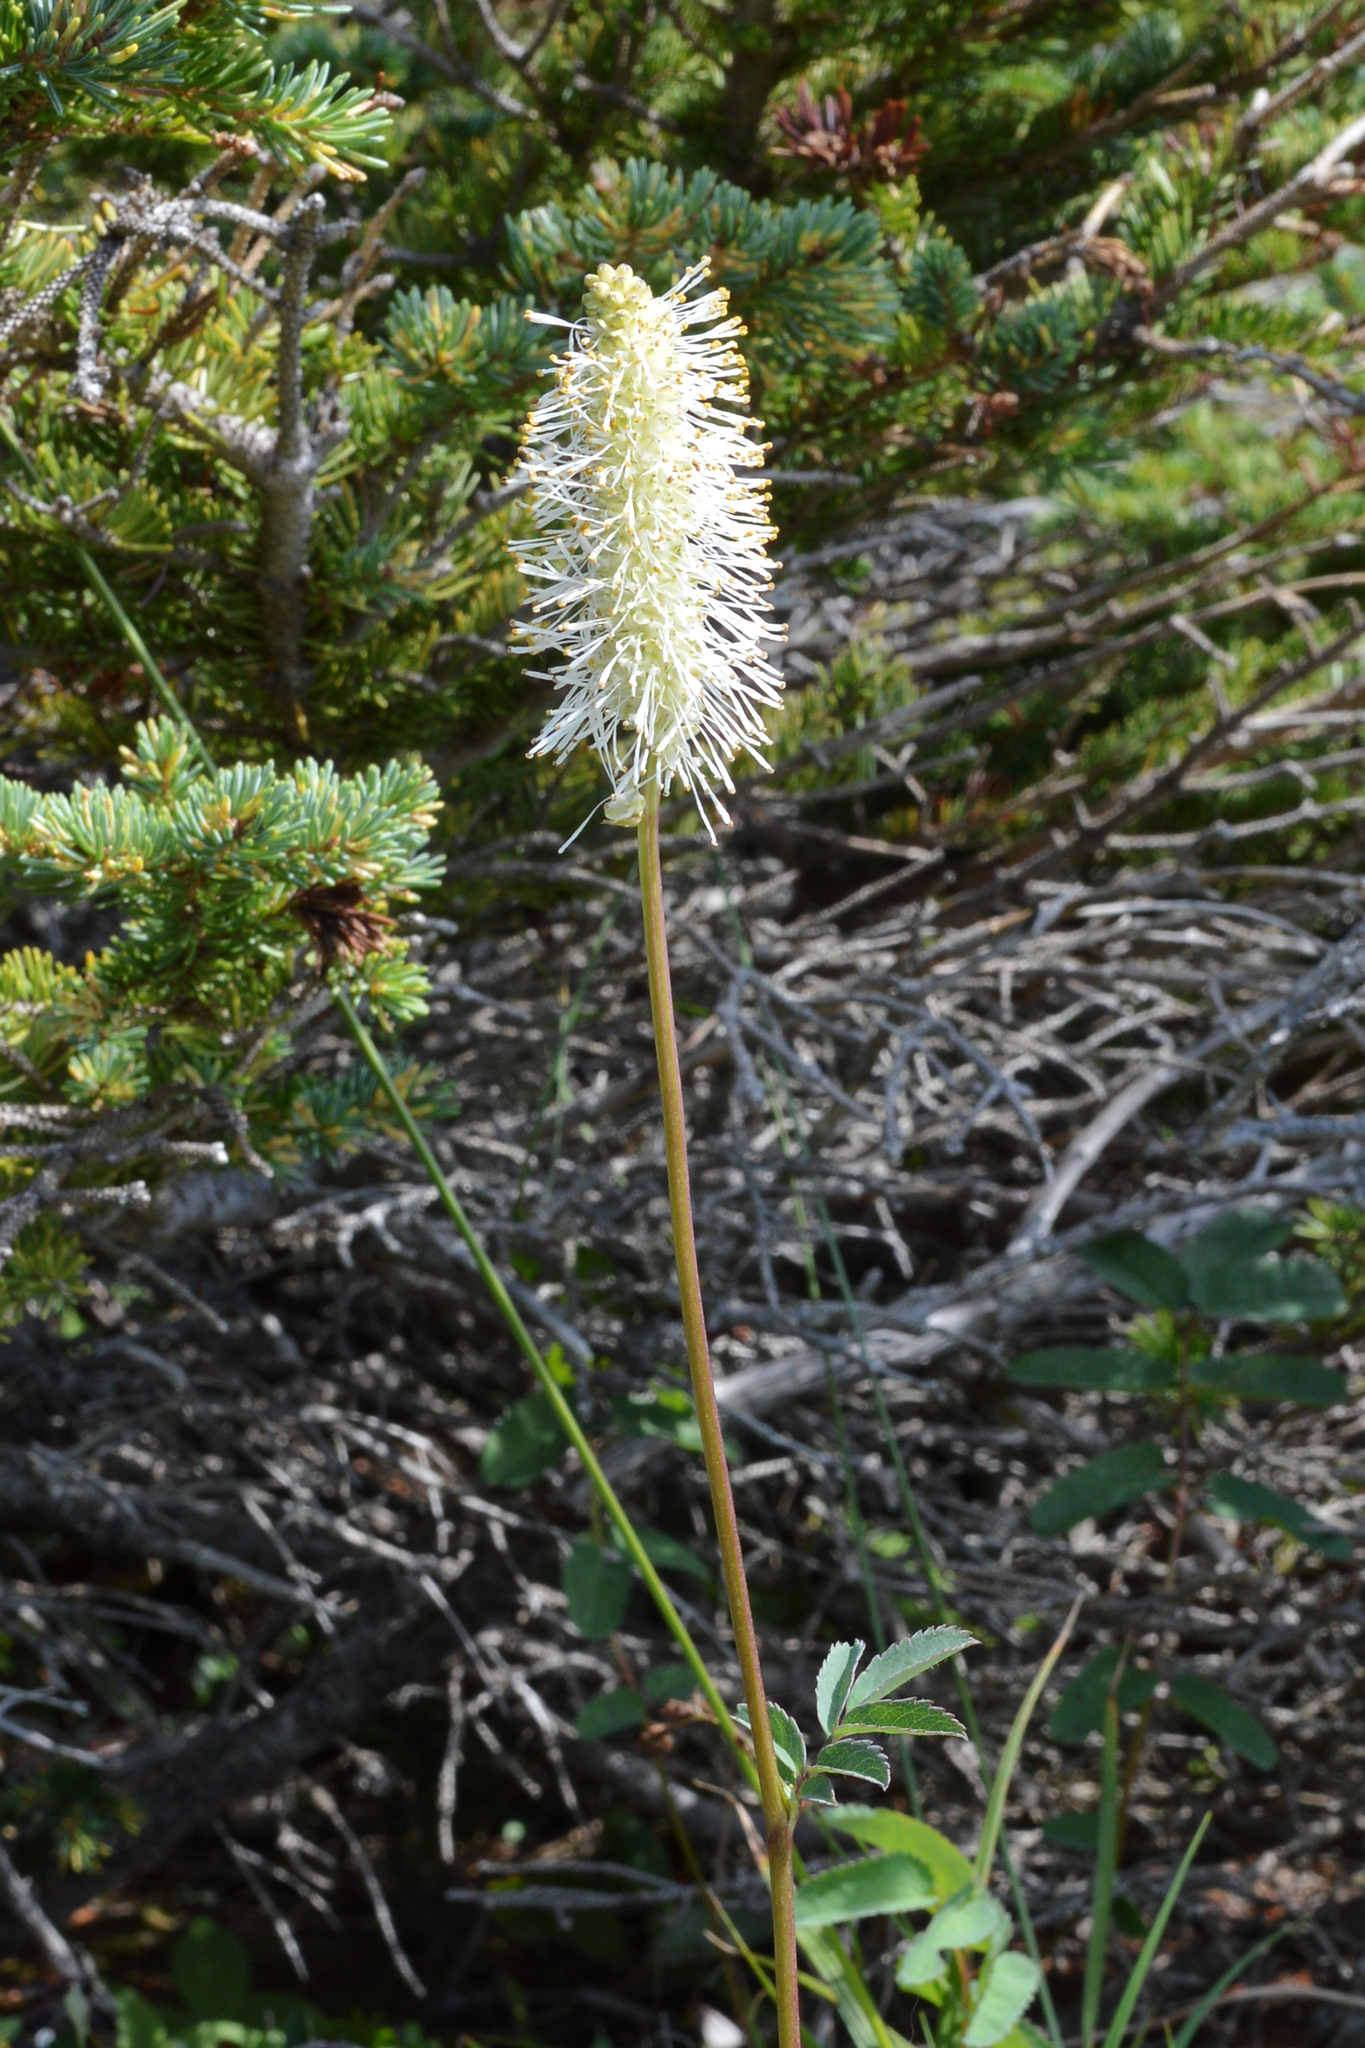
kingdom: Plantae
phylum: Tracheophyta
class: Magnoliopsida
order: Rosales
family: Rosaceae
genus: Sanguisorba
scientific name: Sanguisorba canadensis
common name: White burnet
